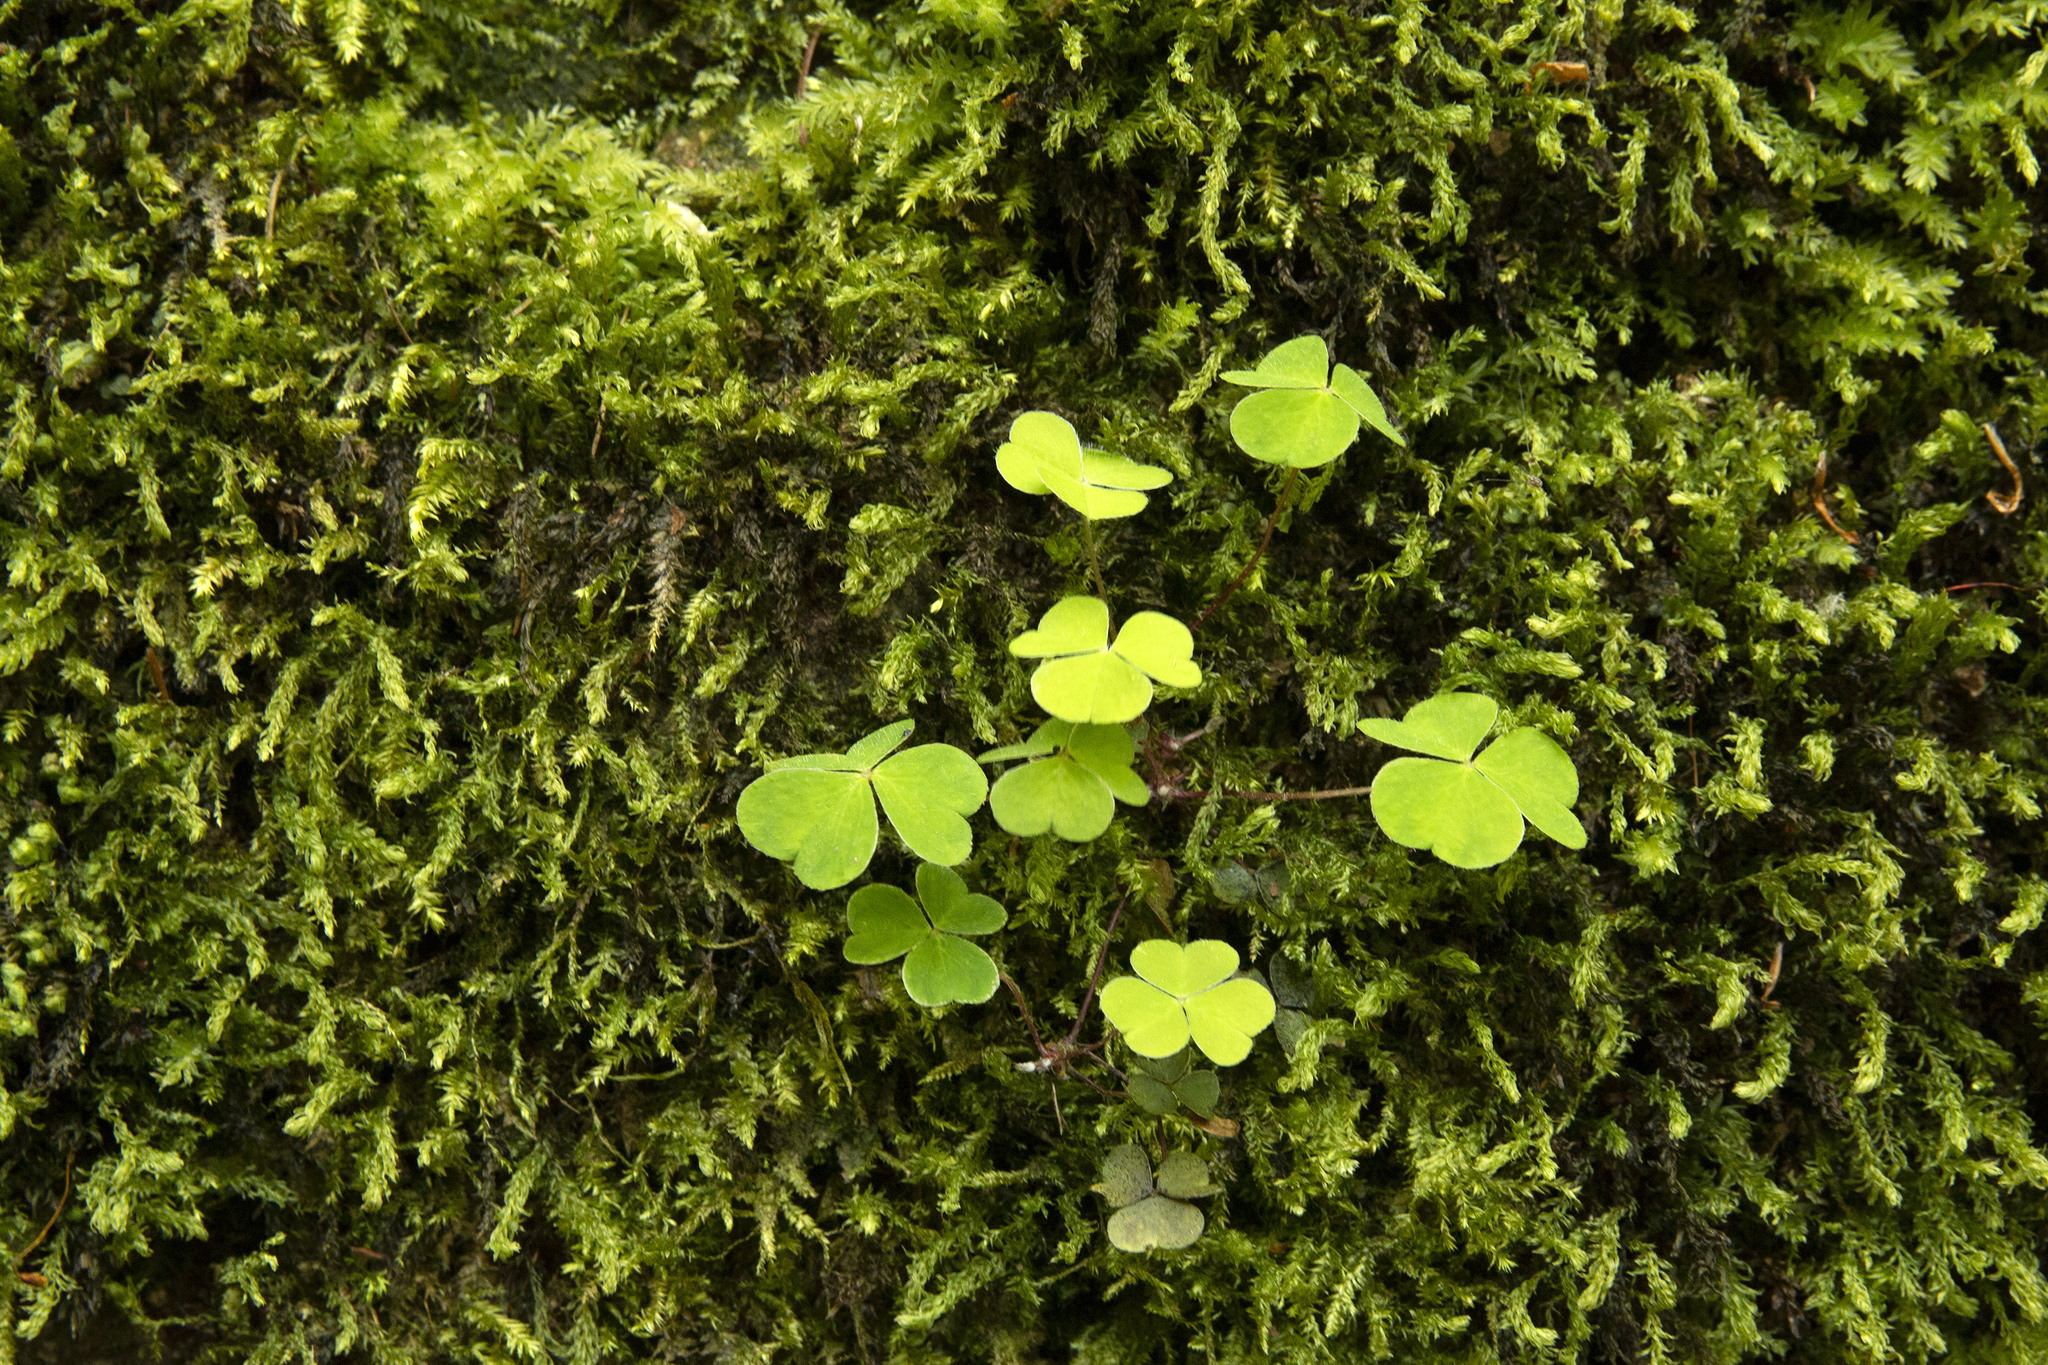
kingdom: Plantae
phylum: Tracheophyta
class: Magnoliopsida
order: Oxalidales
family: Oxalidaceae
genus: Oxalis
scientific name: Oxalis acetosella
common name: Wood-sorrel
